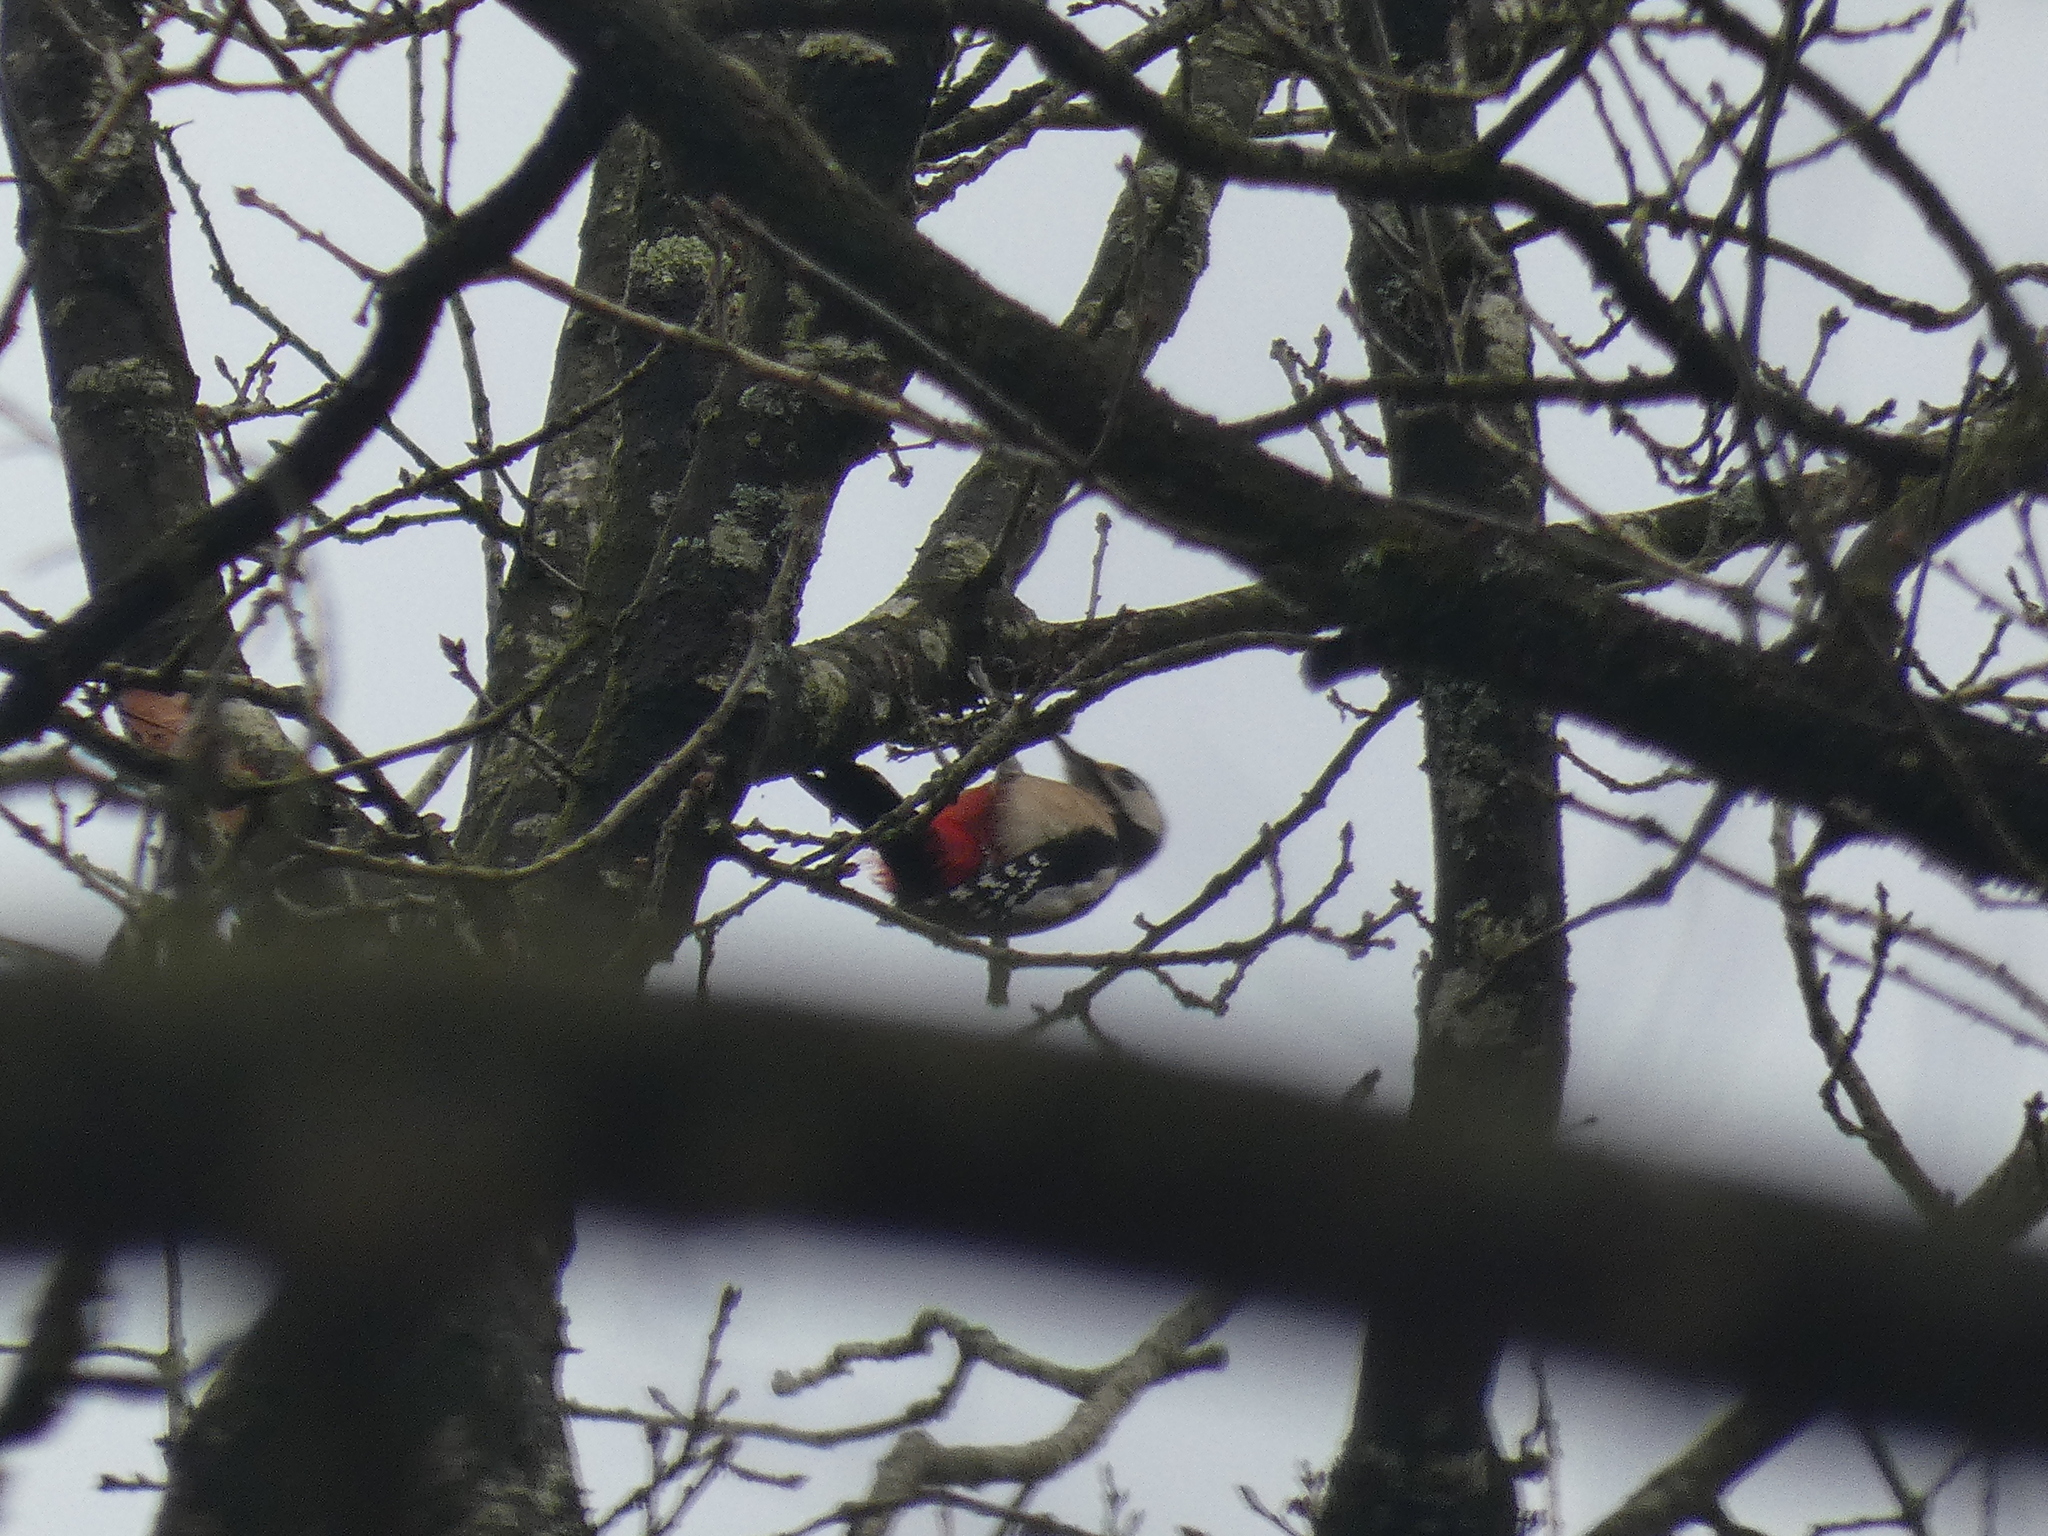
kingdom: Animalia
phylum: Chordata
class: Aves
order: Piciformes
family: Picidae
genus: Dendrocopos
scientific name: Dendrocopos major
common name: Great spotted woodpecker
